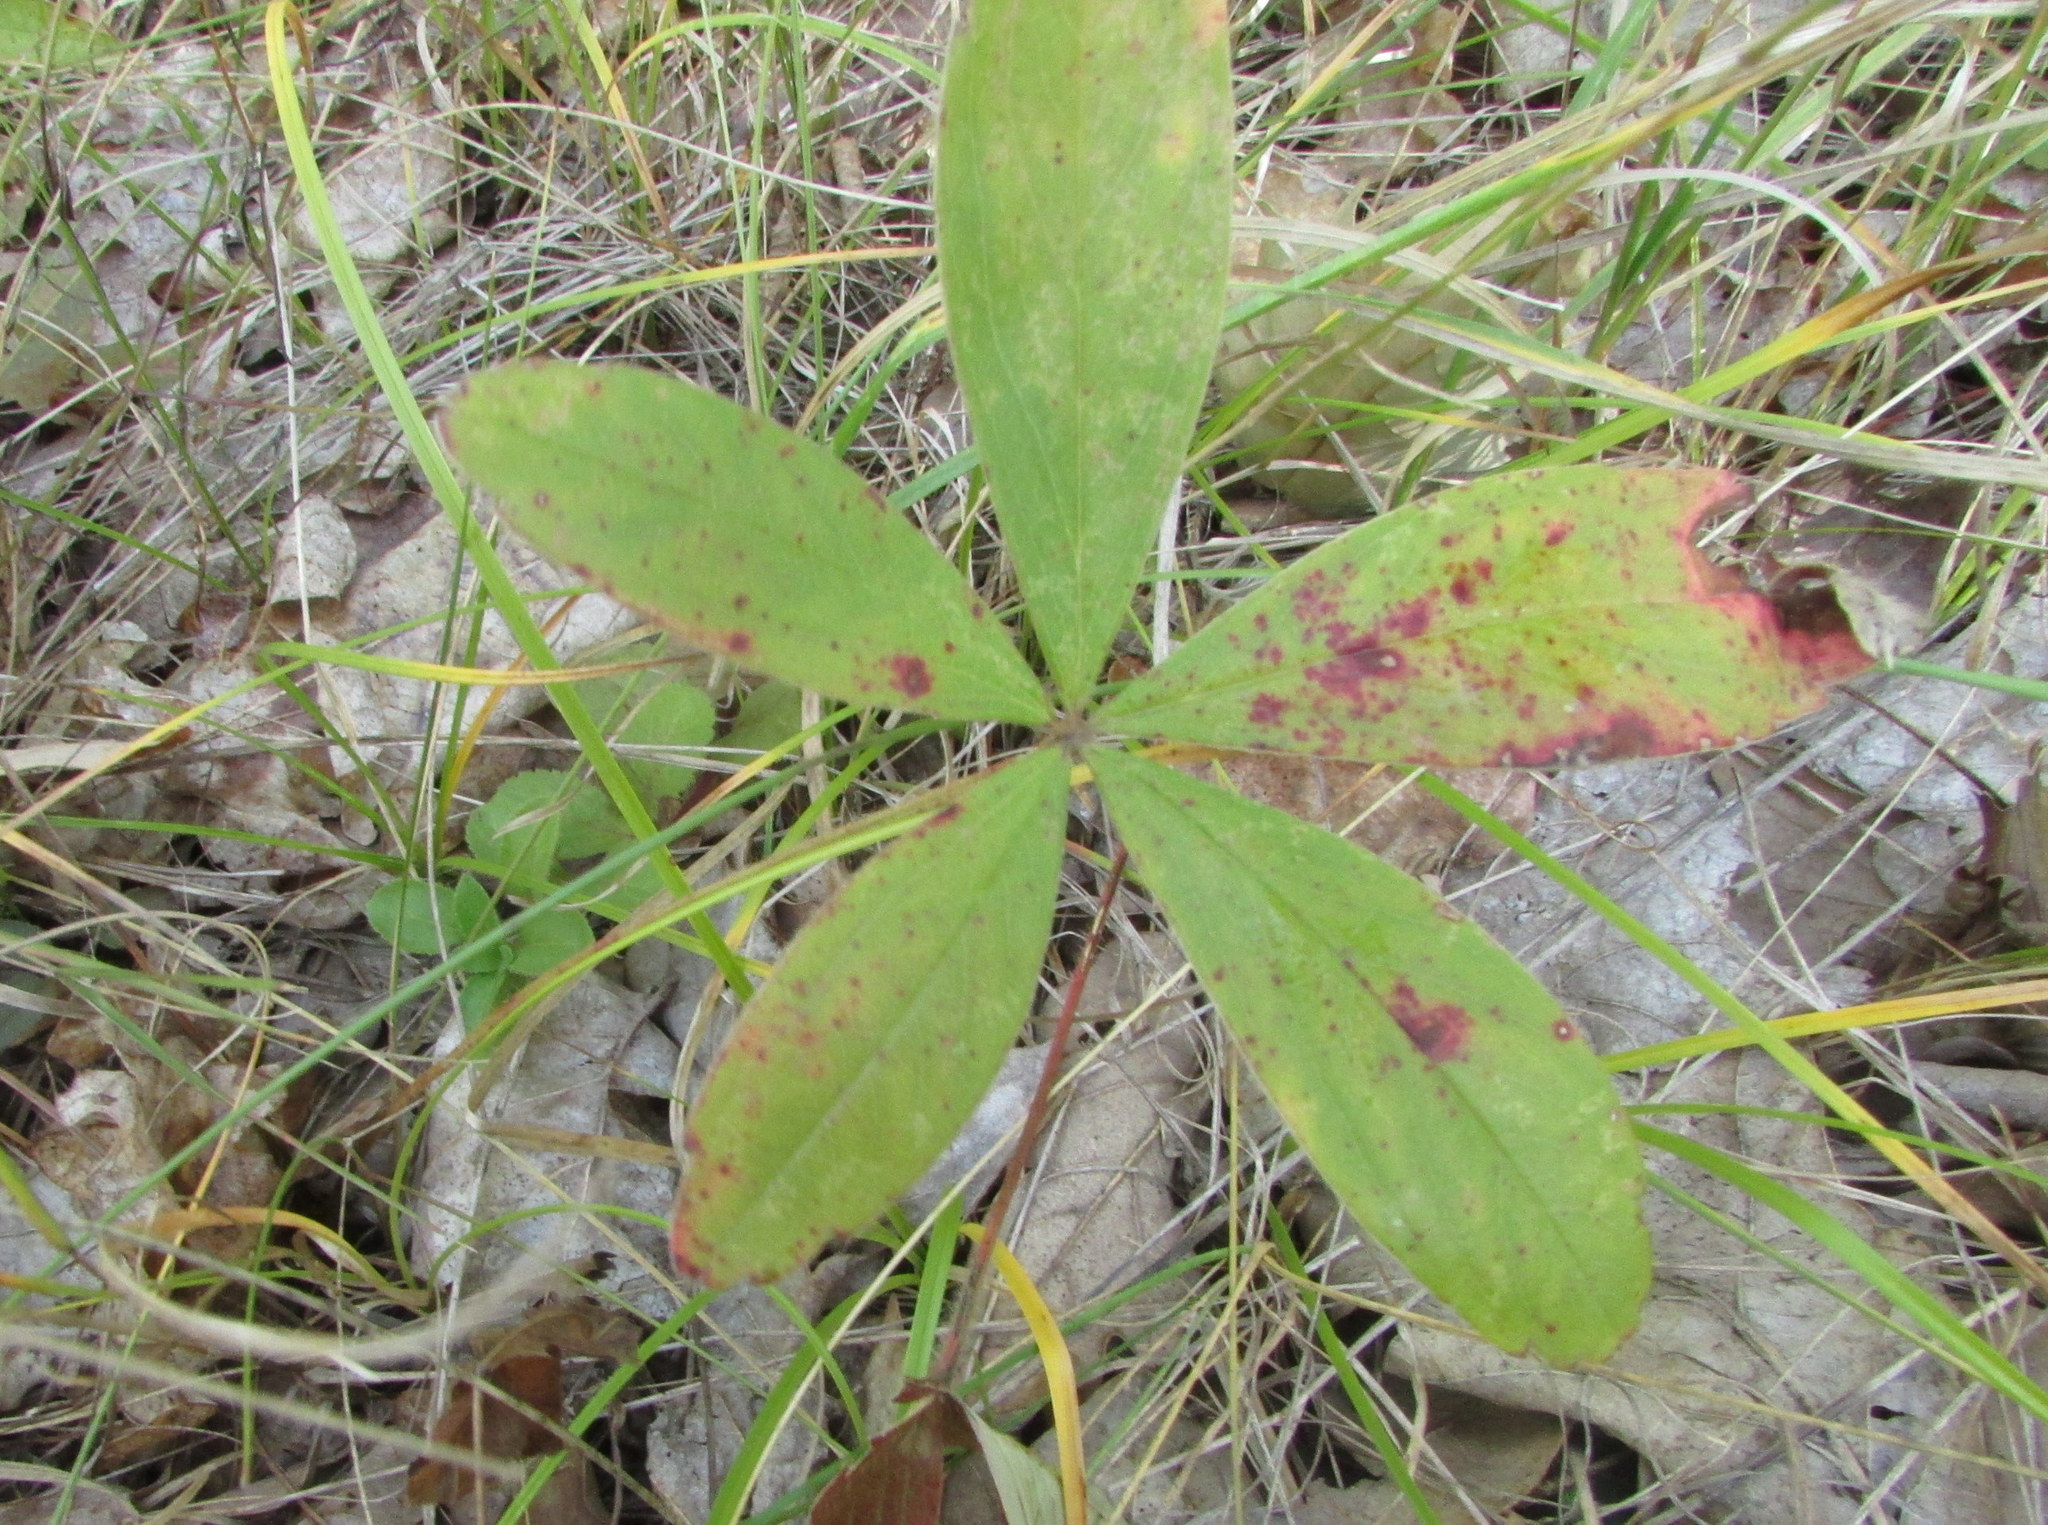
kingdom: Plantae
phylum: Tracheophyta
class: Magnoliopsida
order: Rosales
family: Rosaceae
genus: Potentilla
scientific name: Potentilla alba
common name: White cinquefoil
